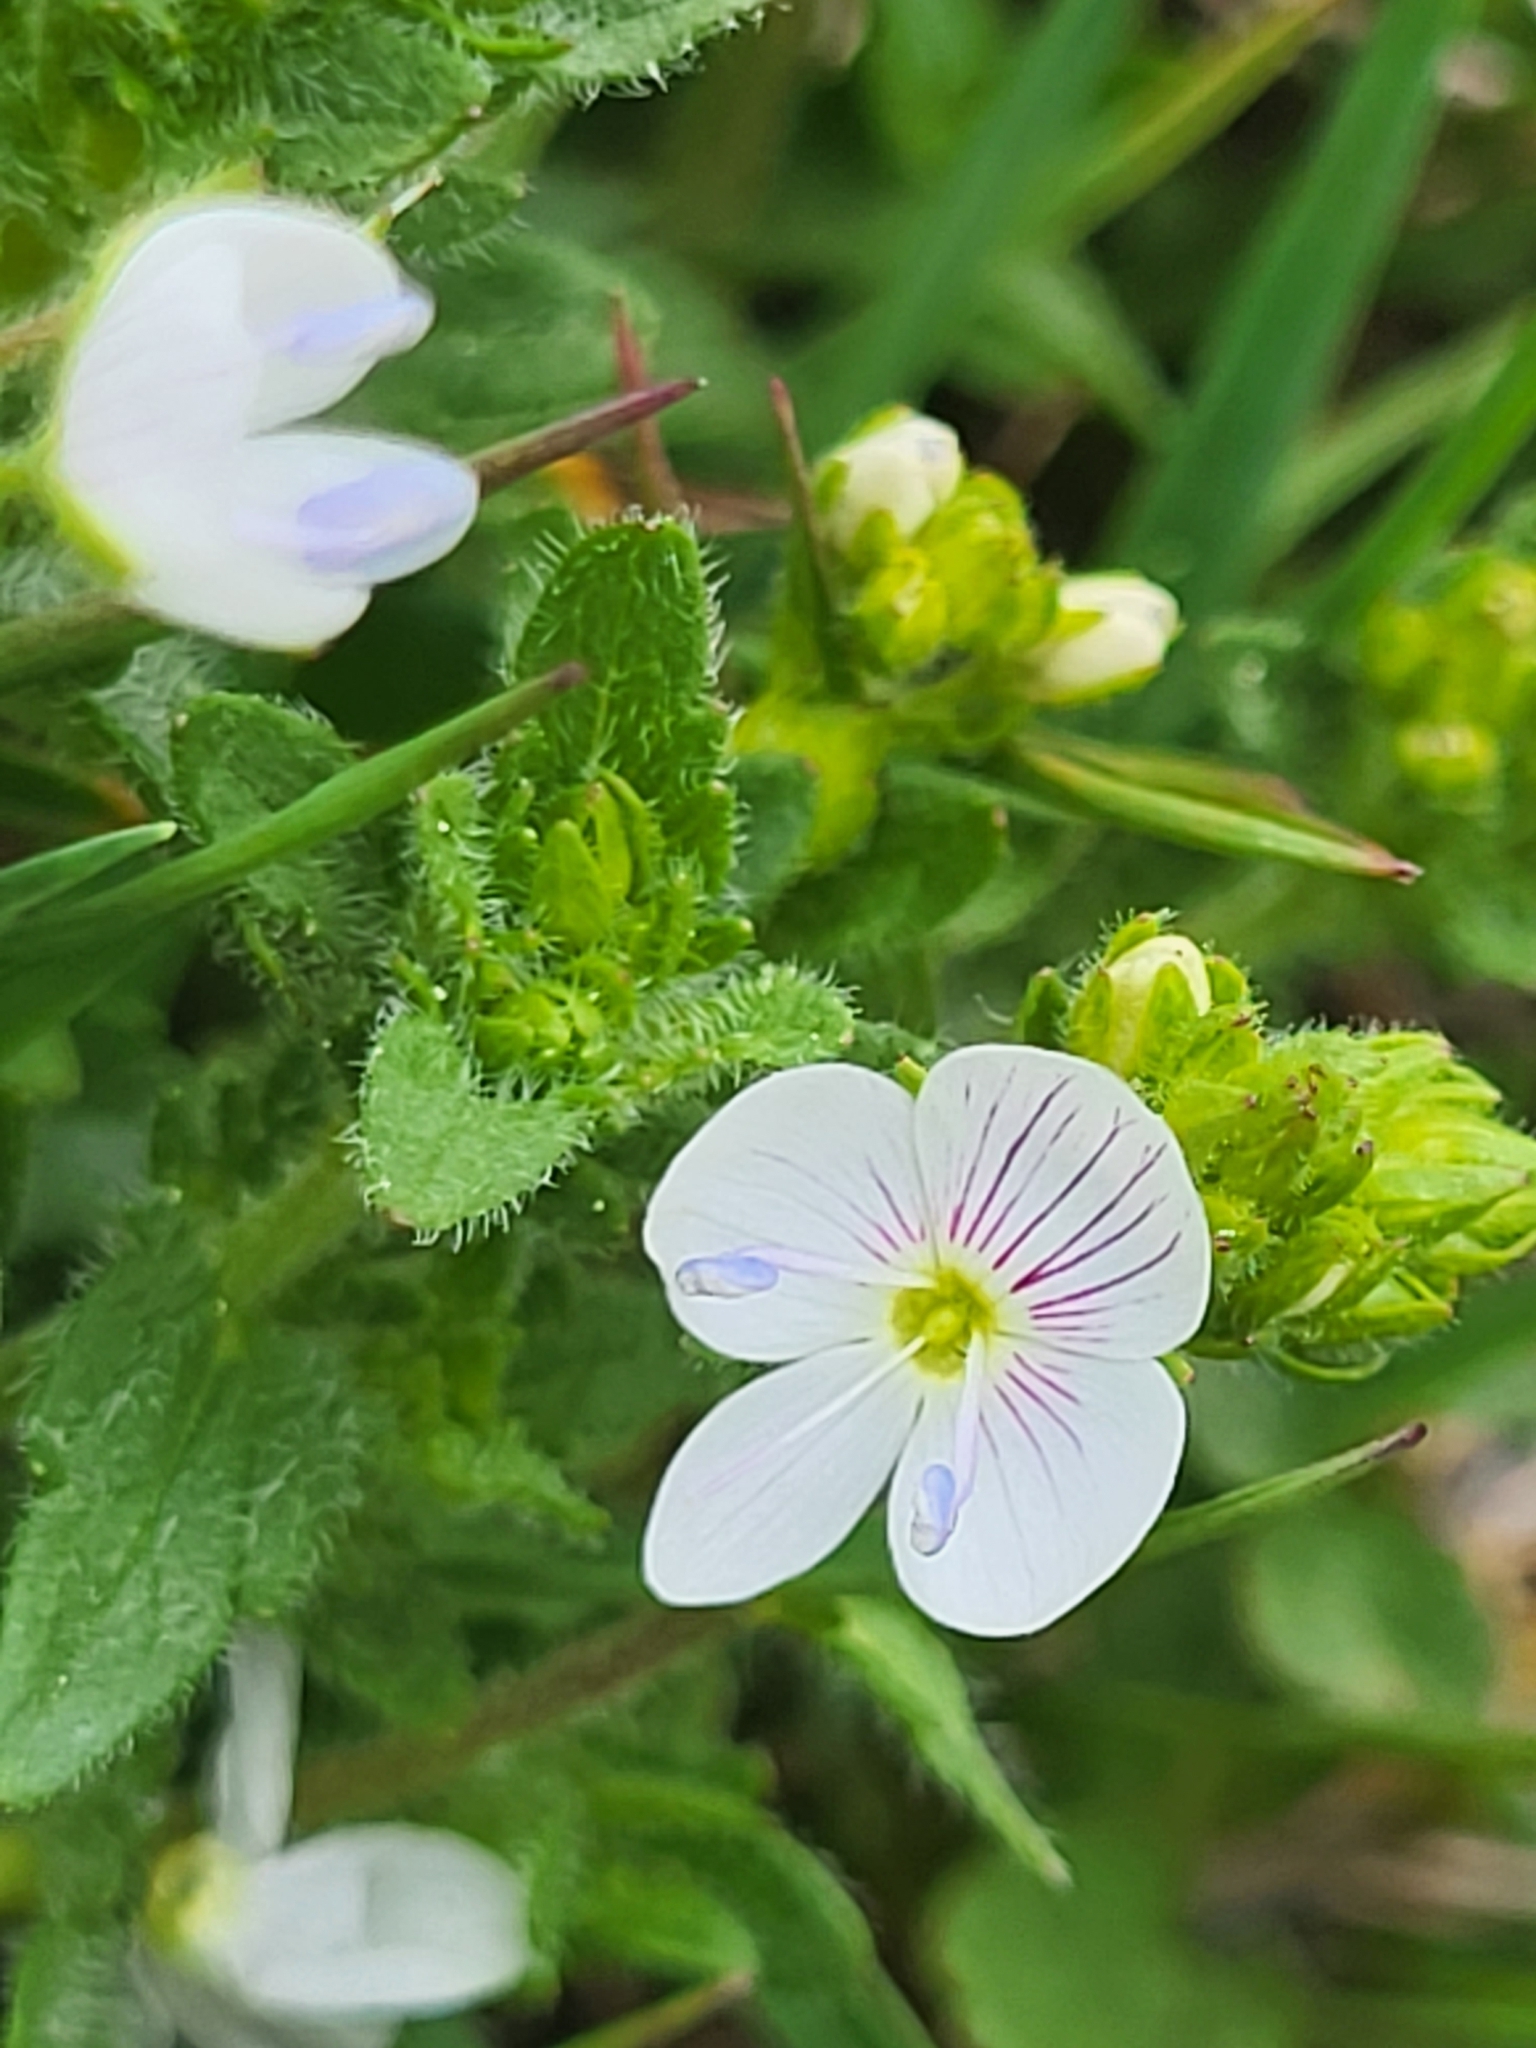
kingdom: Plantae
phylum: Tracheophyta
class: Magnoliopsida
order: Lamiales
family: Plantaginaceae
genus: Veronica
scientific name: Veronica peduncularis
